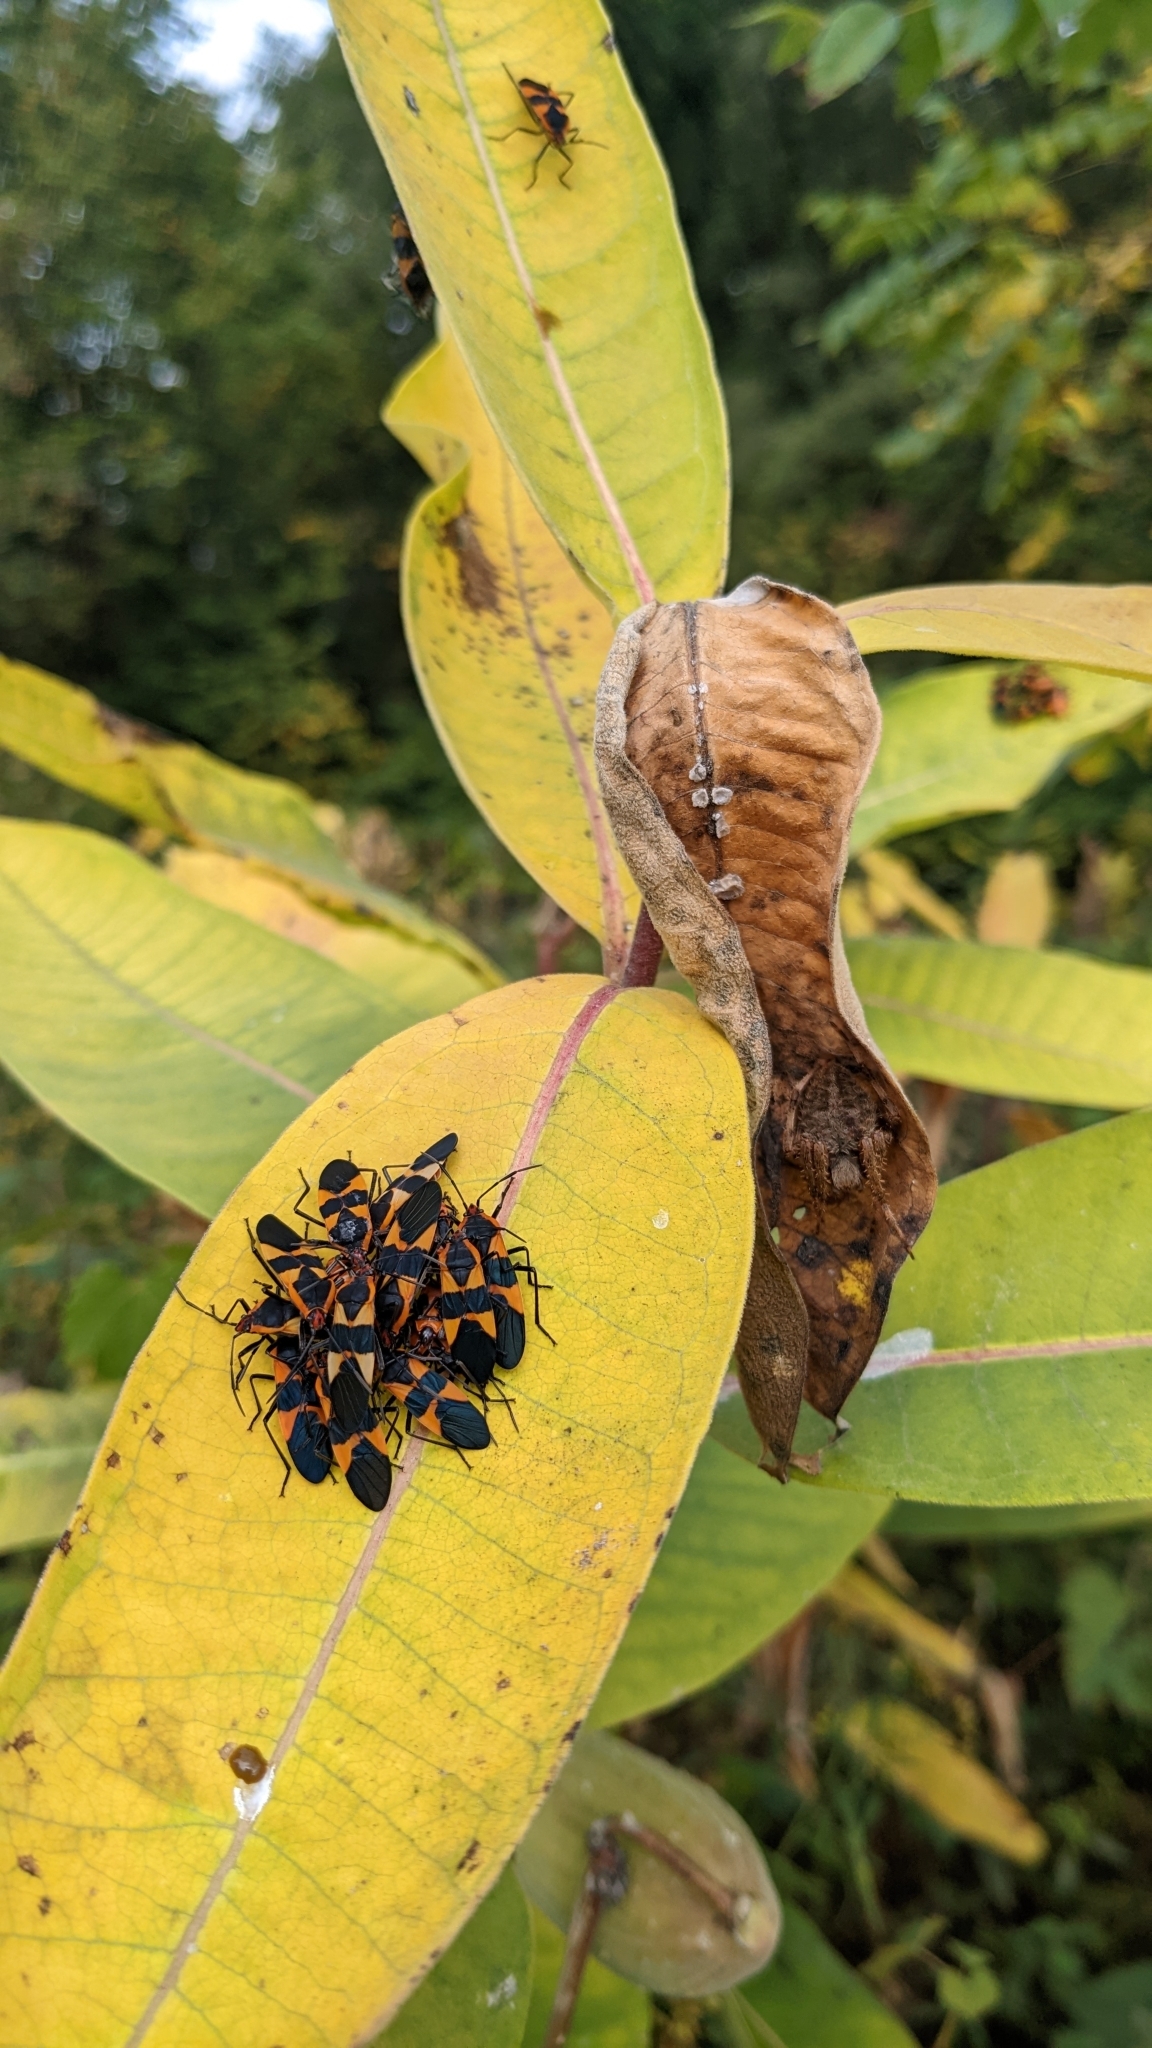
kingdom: Animalia
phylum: Arthropoda
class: Insecta
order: Hemiptera
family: Lygaeidae
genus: Oncopeltus
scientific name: Oncopeltus fasciatus
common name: Large milkweed bug
